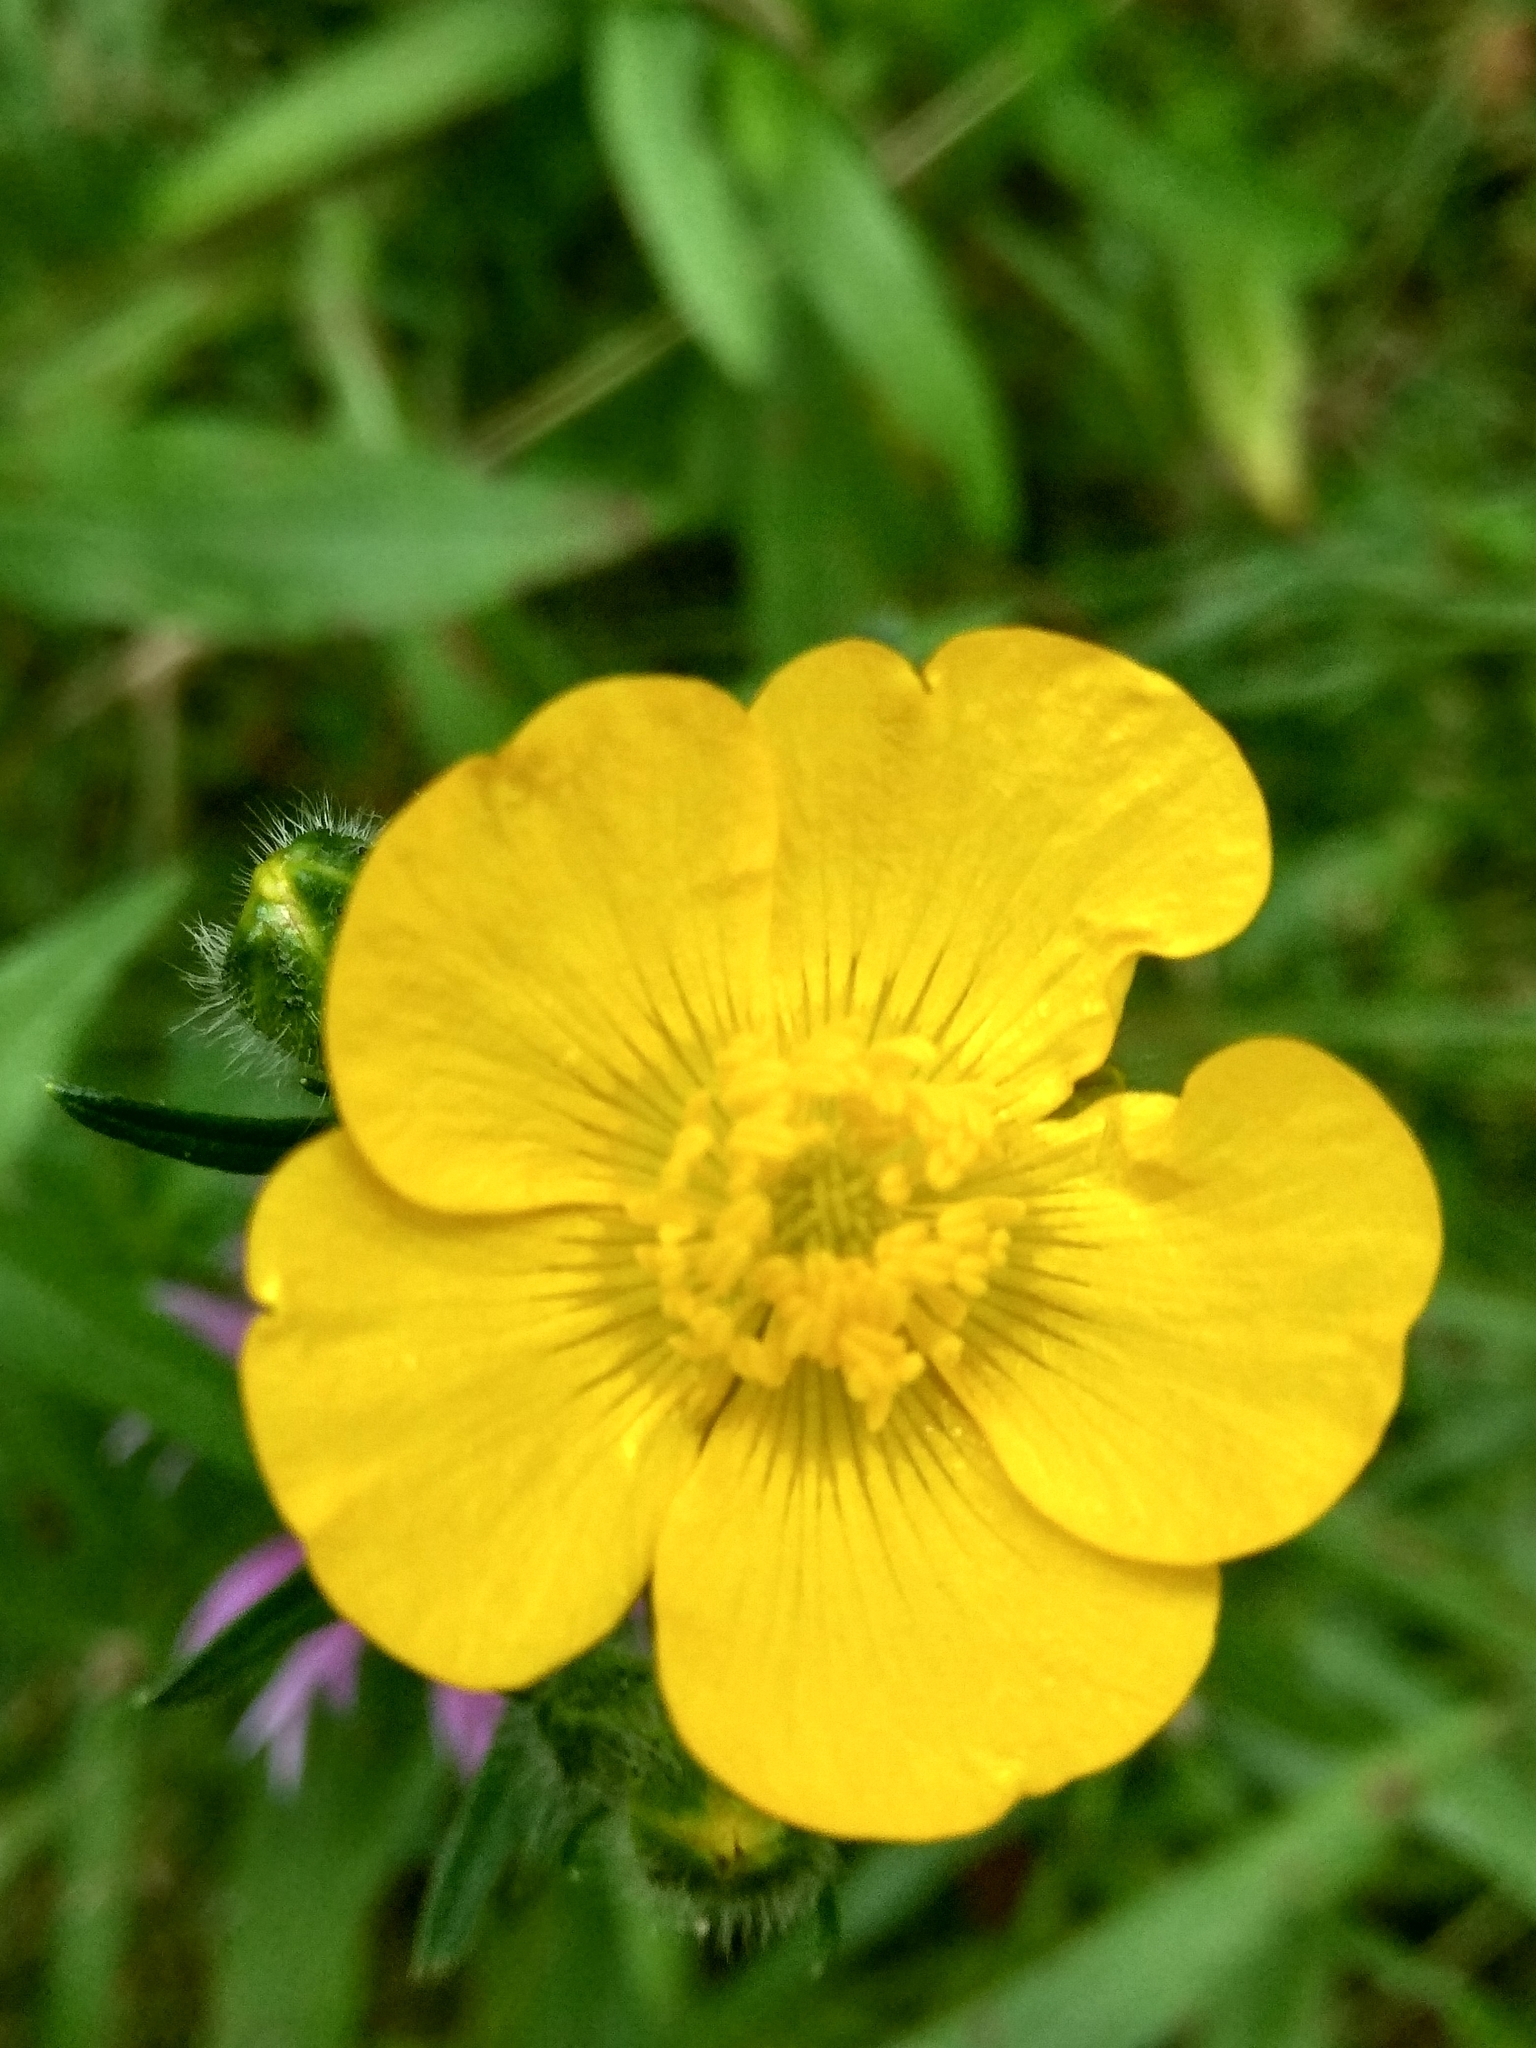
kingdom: Plantae
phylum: Tracheophyta
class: Magnoliopsida
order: Ranunculales
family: Ranunculaceae
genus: Ranunculus
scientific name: Ranunculus polyanthemos
